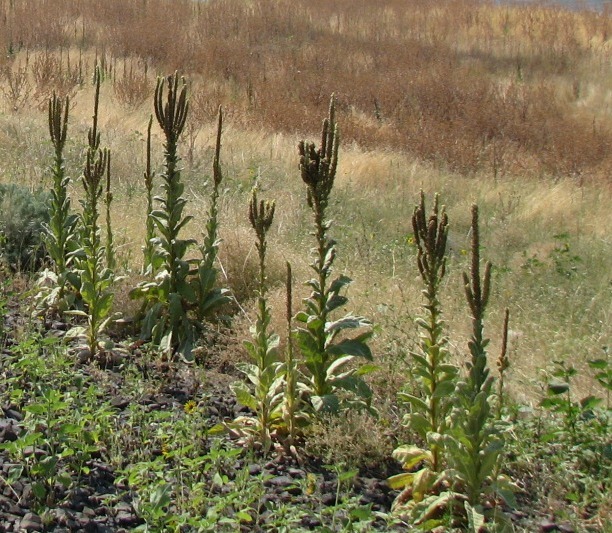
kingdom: Plantae
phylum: Tracheophyta
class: Magnoliopsida
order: Lamiales
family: Scrophulariaceae
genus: Verbascum
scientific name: Verbascum thapsus
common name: Common mullein
